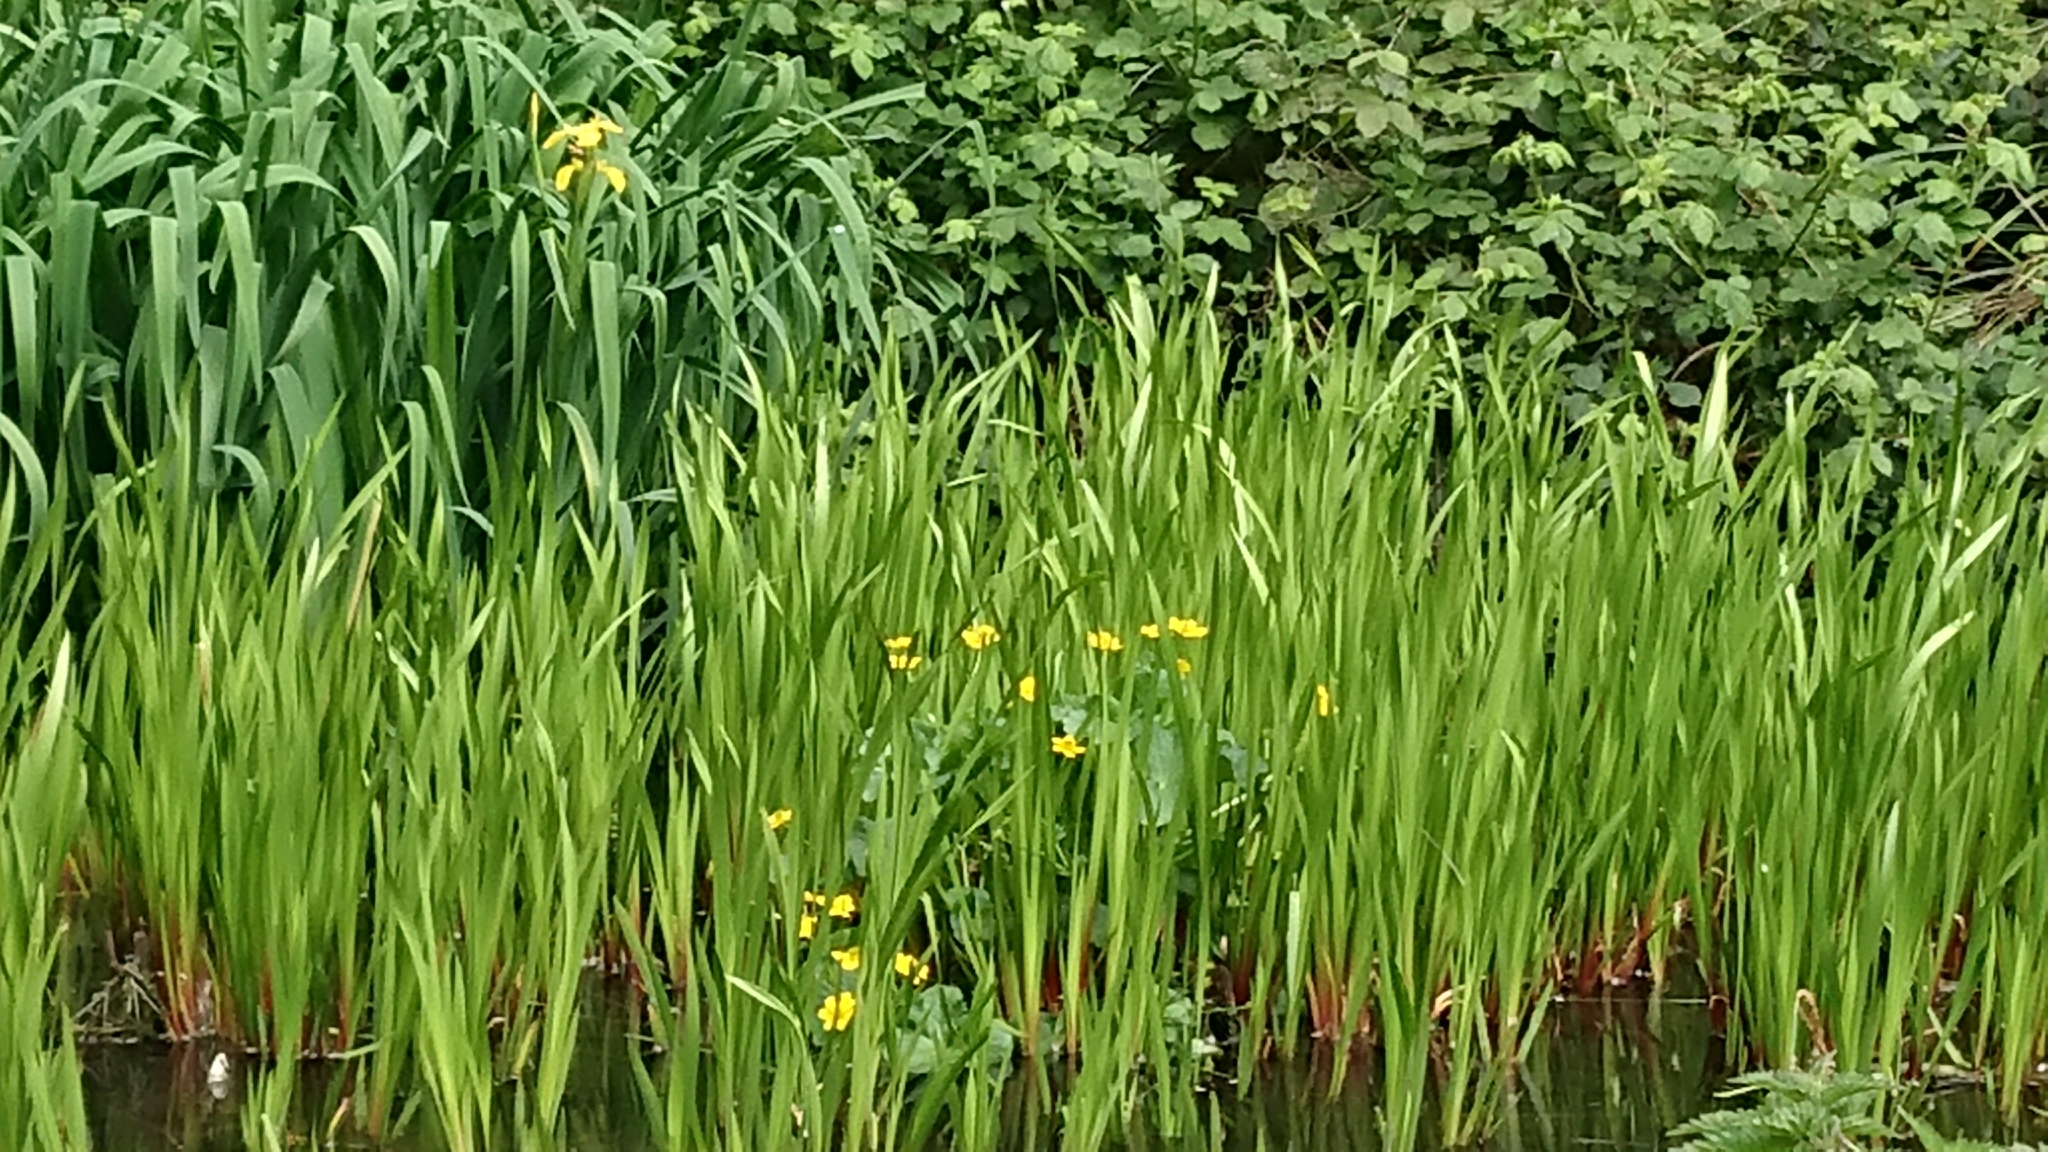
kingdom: Plantae
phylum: Tracheophyta
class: Magnoliopsida
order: Ranunculales
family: Ranunculaceae
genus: Caltha
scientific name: Caltha palustris
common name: Marsh marigold
